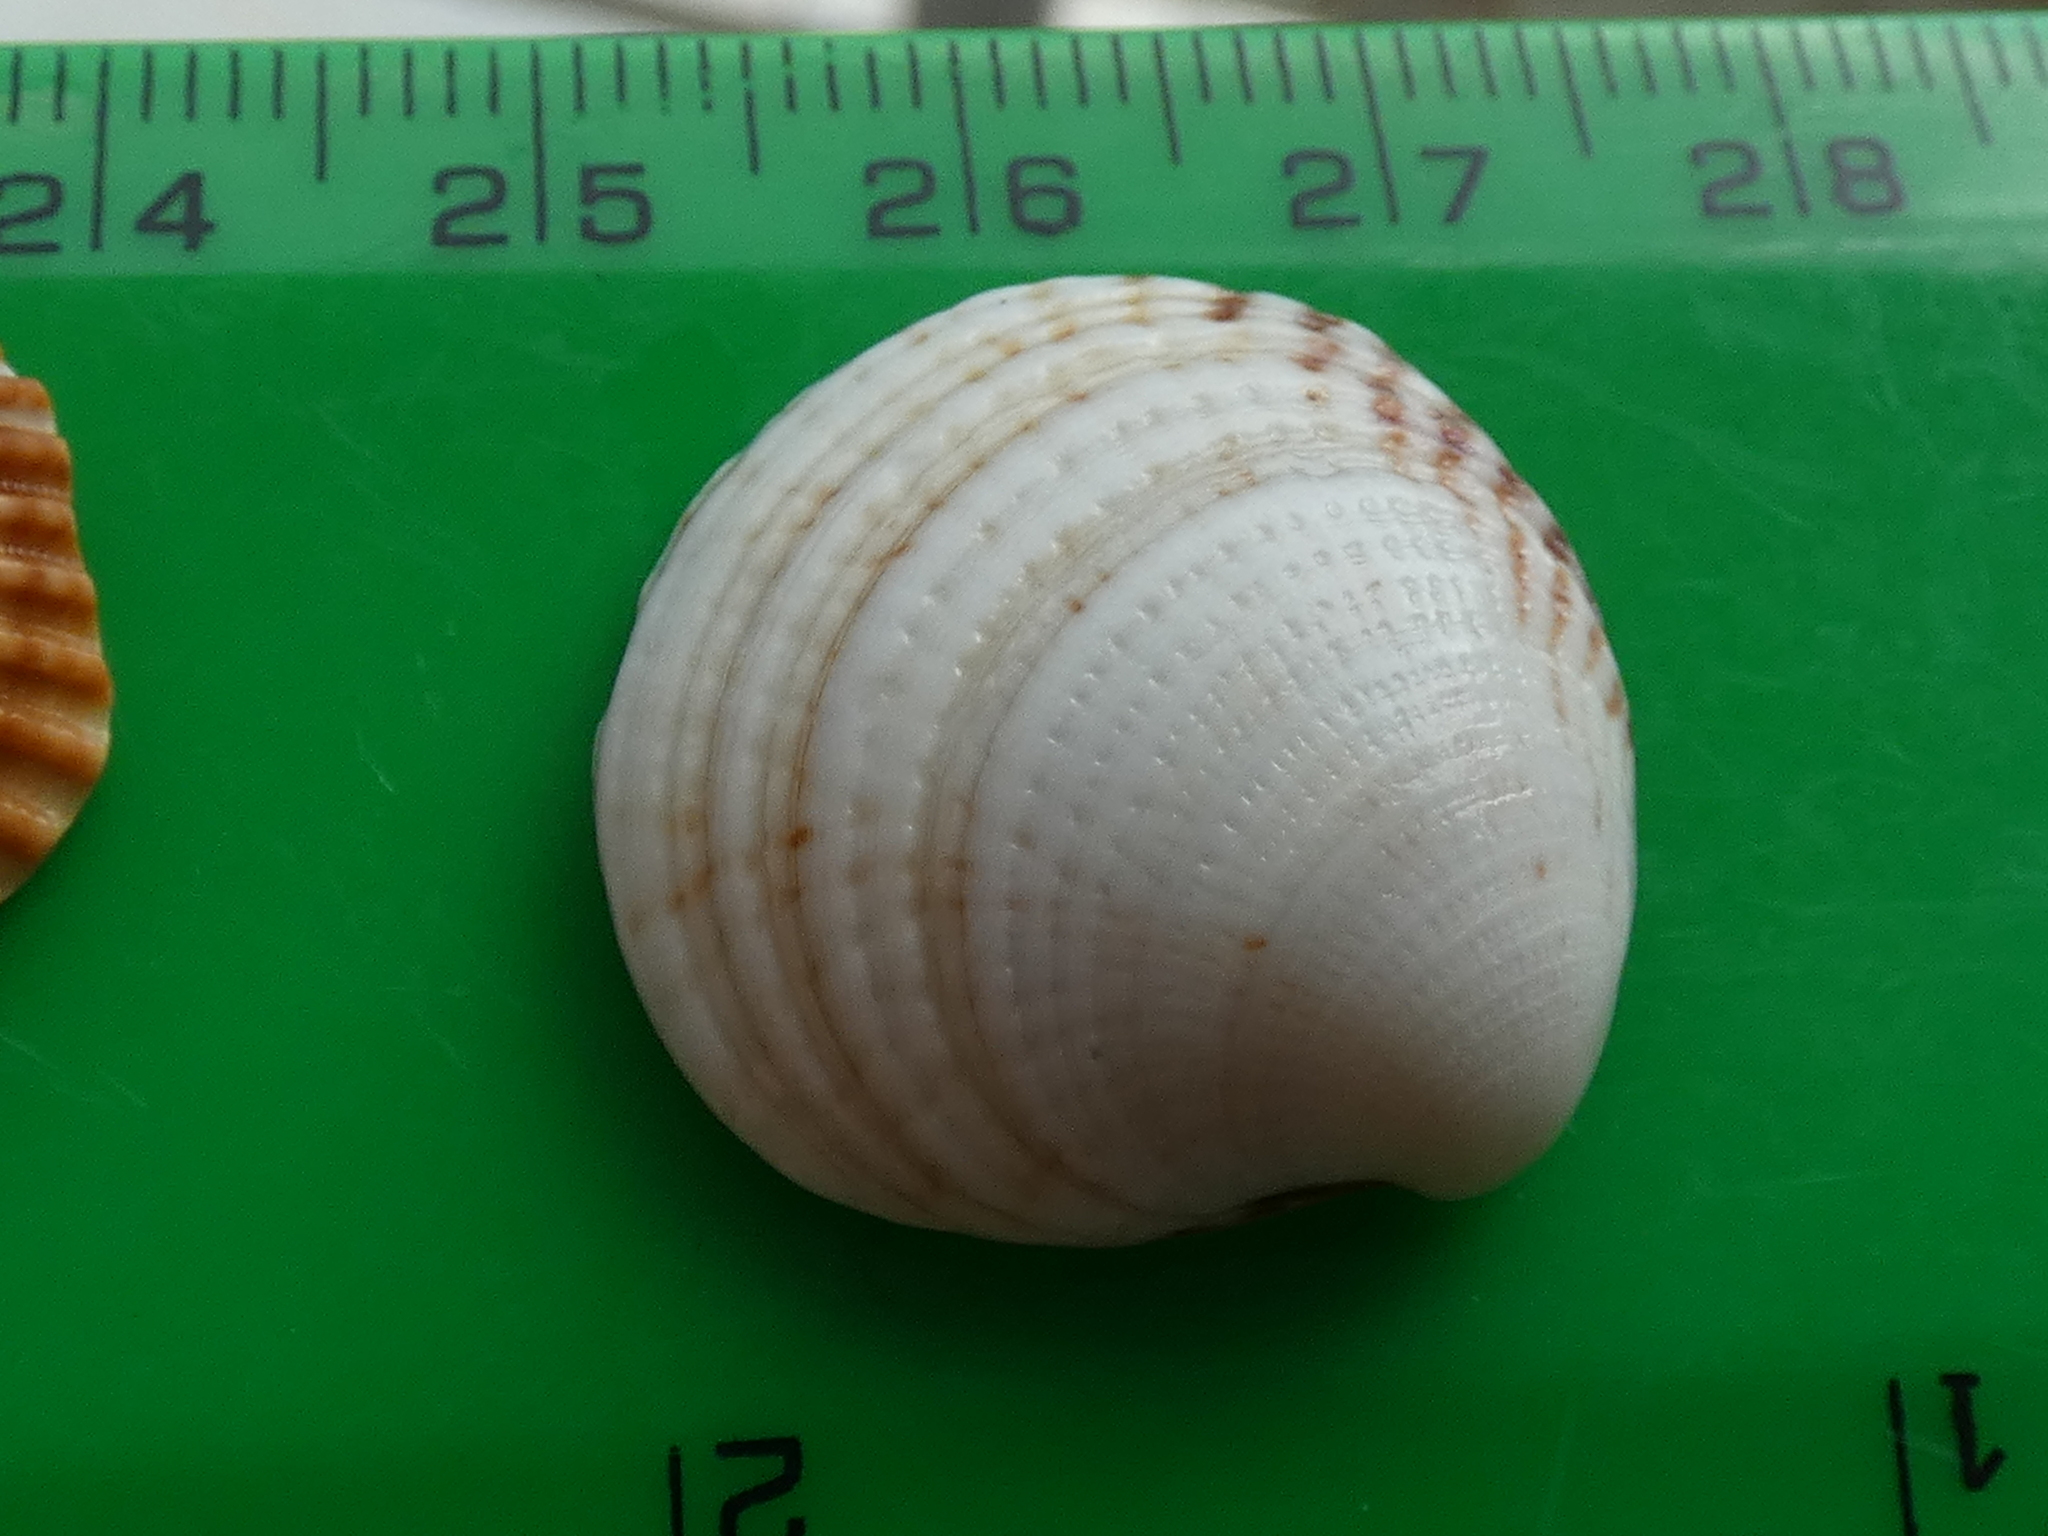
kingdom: Animalia
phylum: Mollusca
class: Bivalvia
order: Venerida
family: Veneridae
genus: Venus
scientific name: Venus verrucosa
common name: Warty venus
